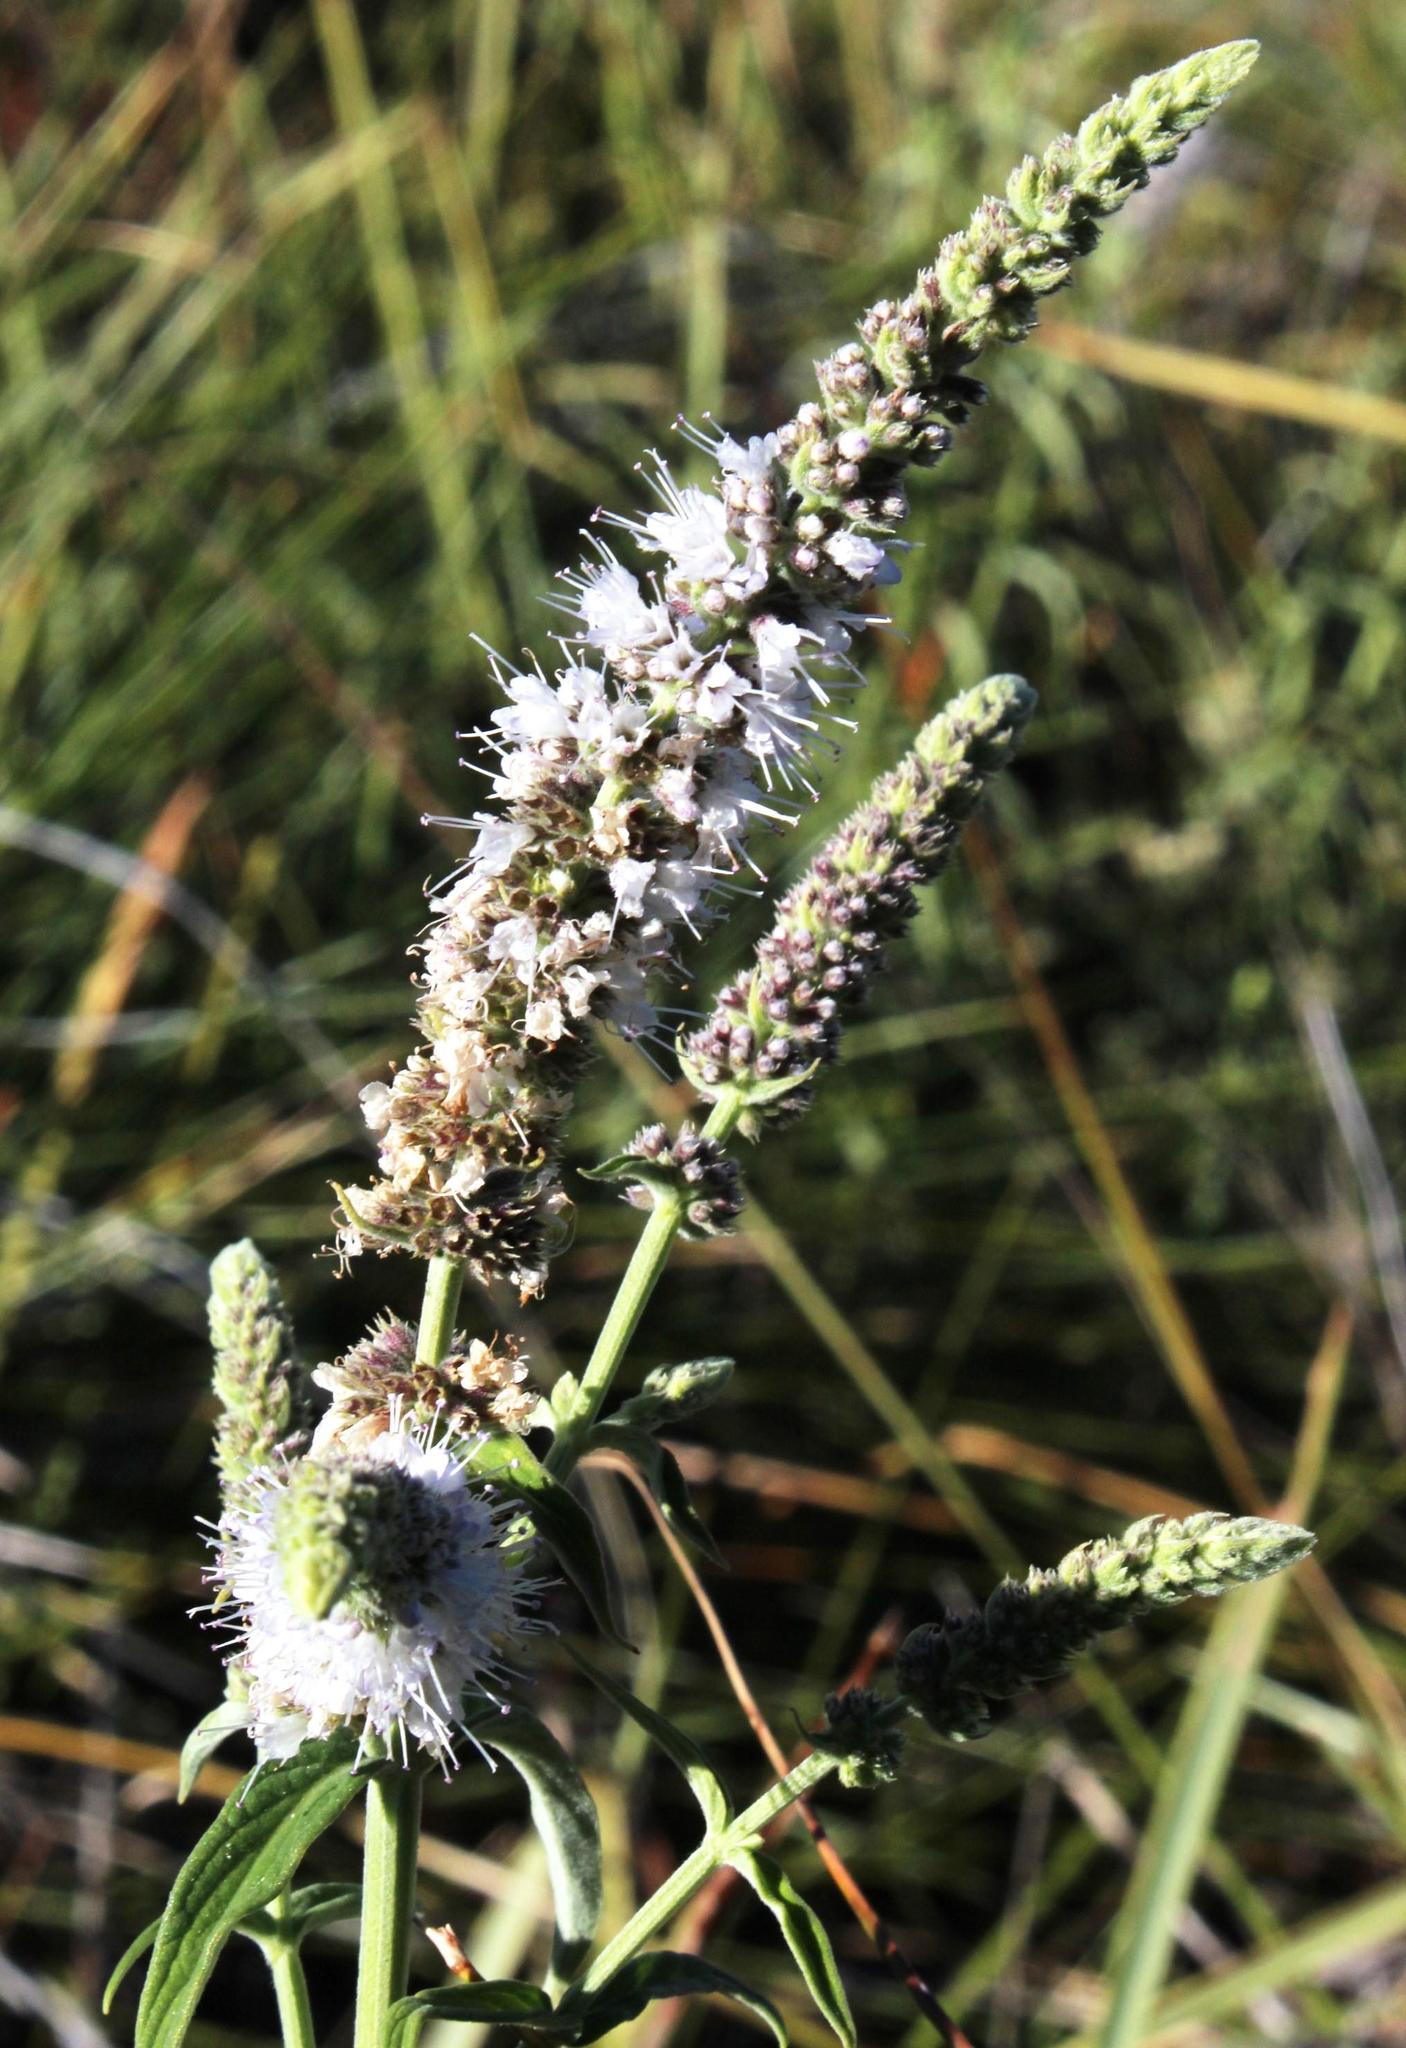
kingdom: Plantae
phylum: Tracheophyta
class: Magnoliopsida
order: Lamiales
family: Lamiaceae
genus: Mentha
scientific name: Mentha longifolia
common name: Horse mint
